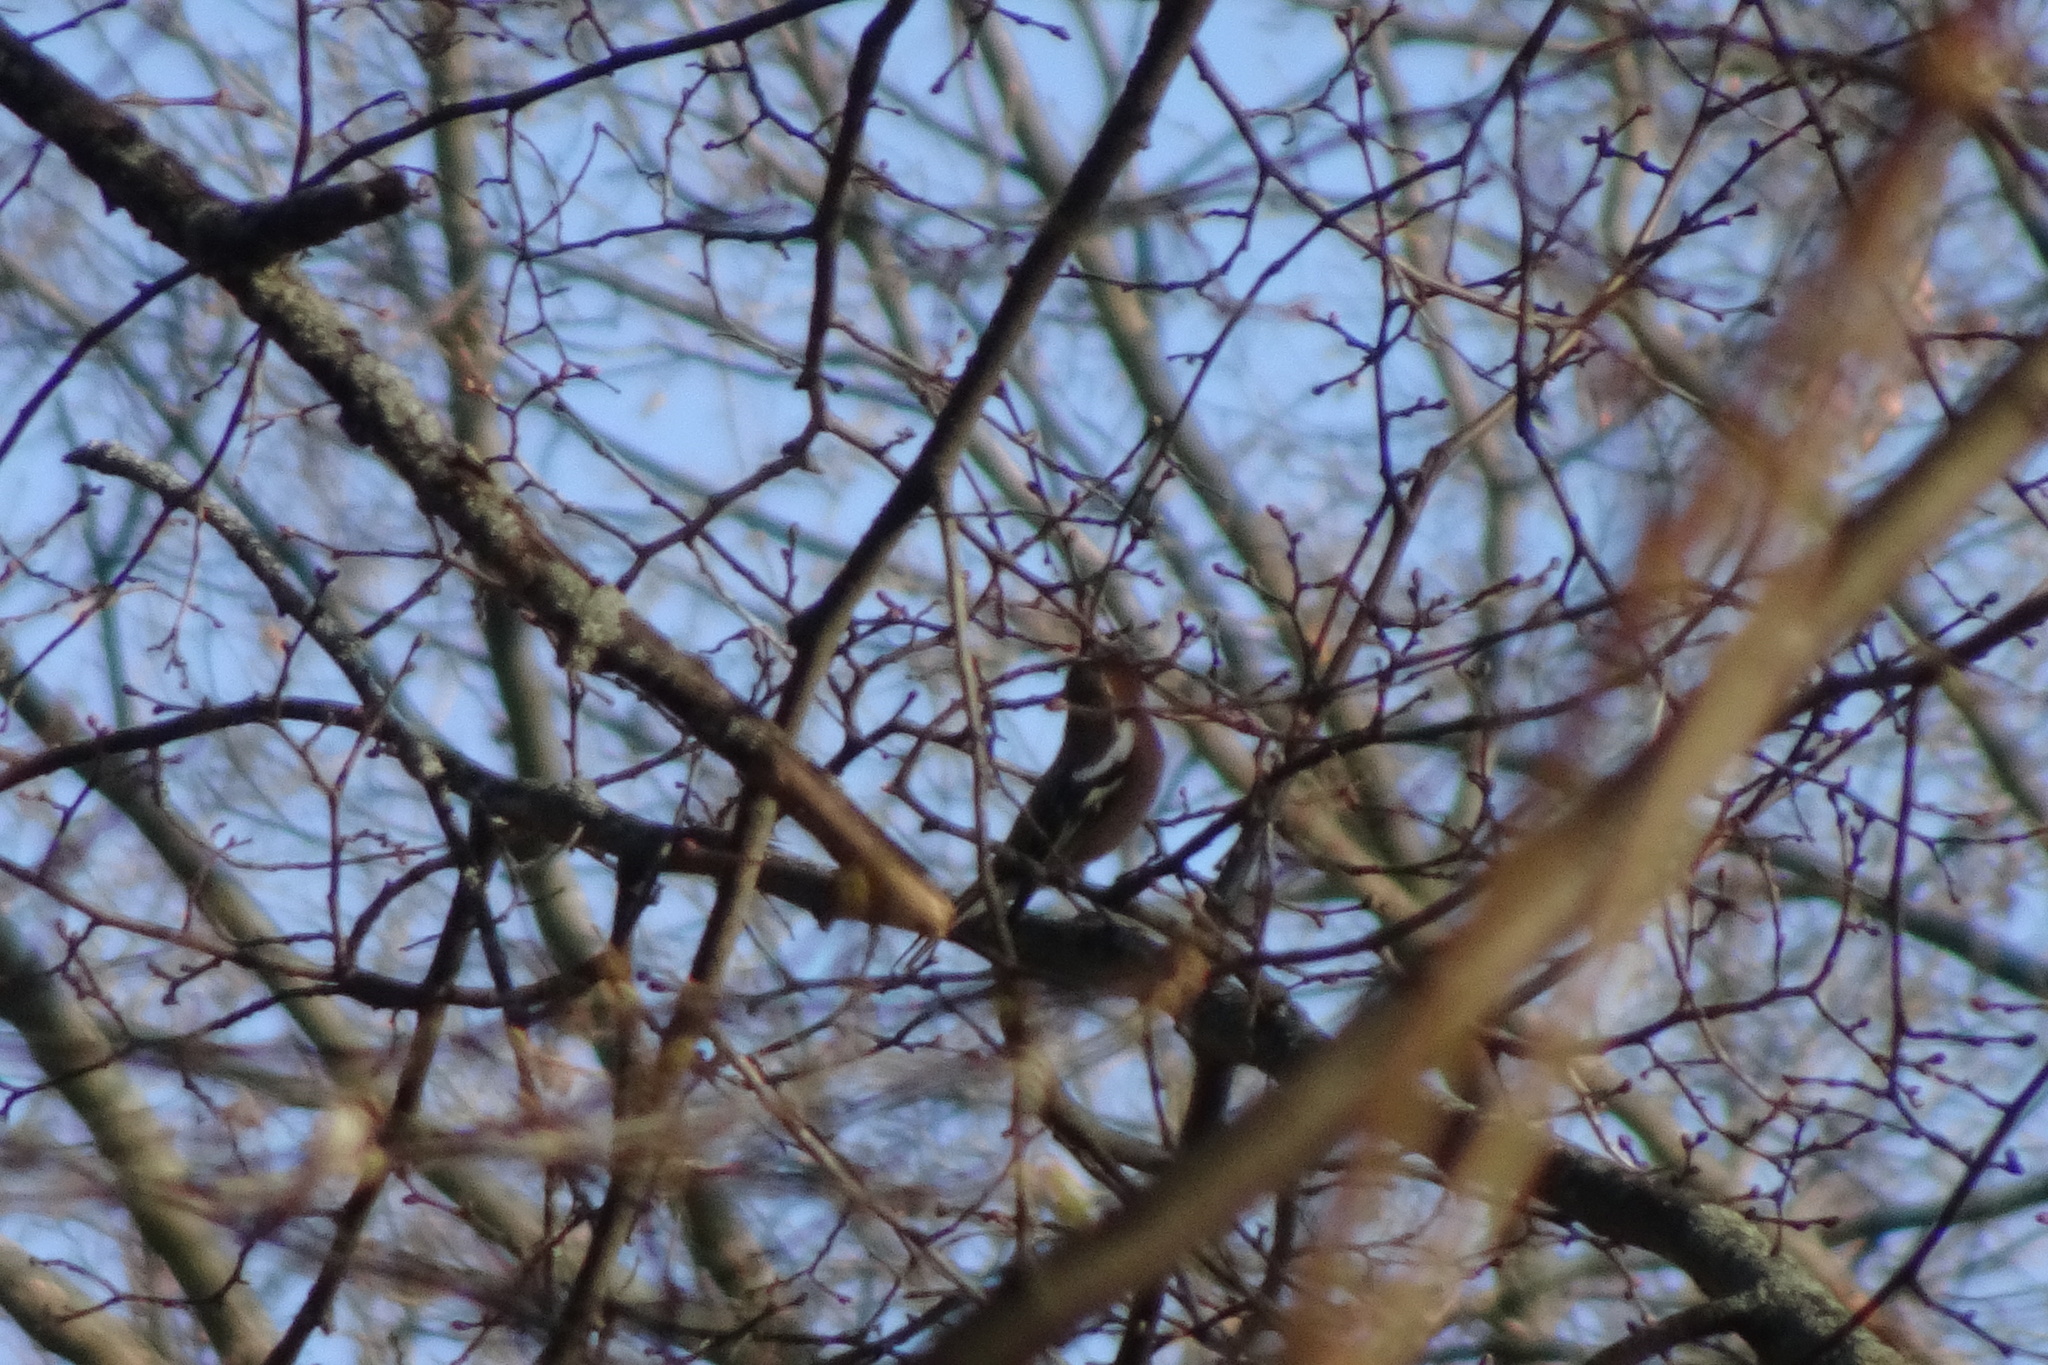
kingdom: Animalia
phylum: Chordata
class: Aves
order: Passeriformes
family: Fringillidae
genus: Fringilla
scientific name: Fringilla coelebs
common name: Common chaffinch
